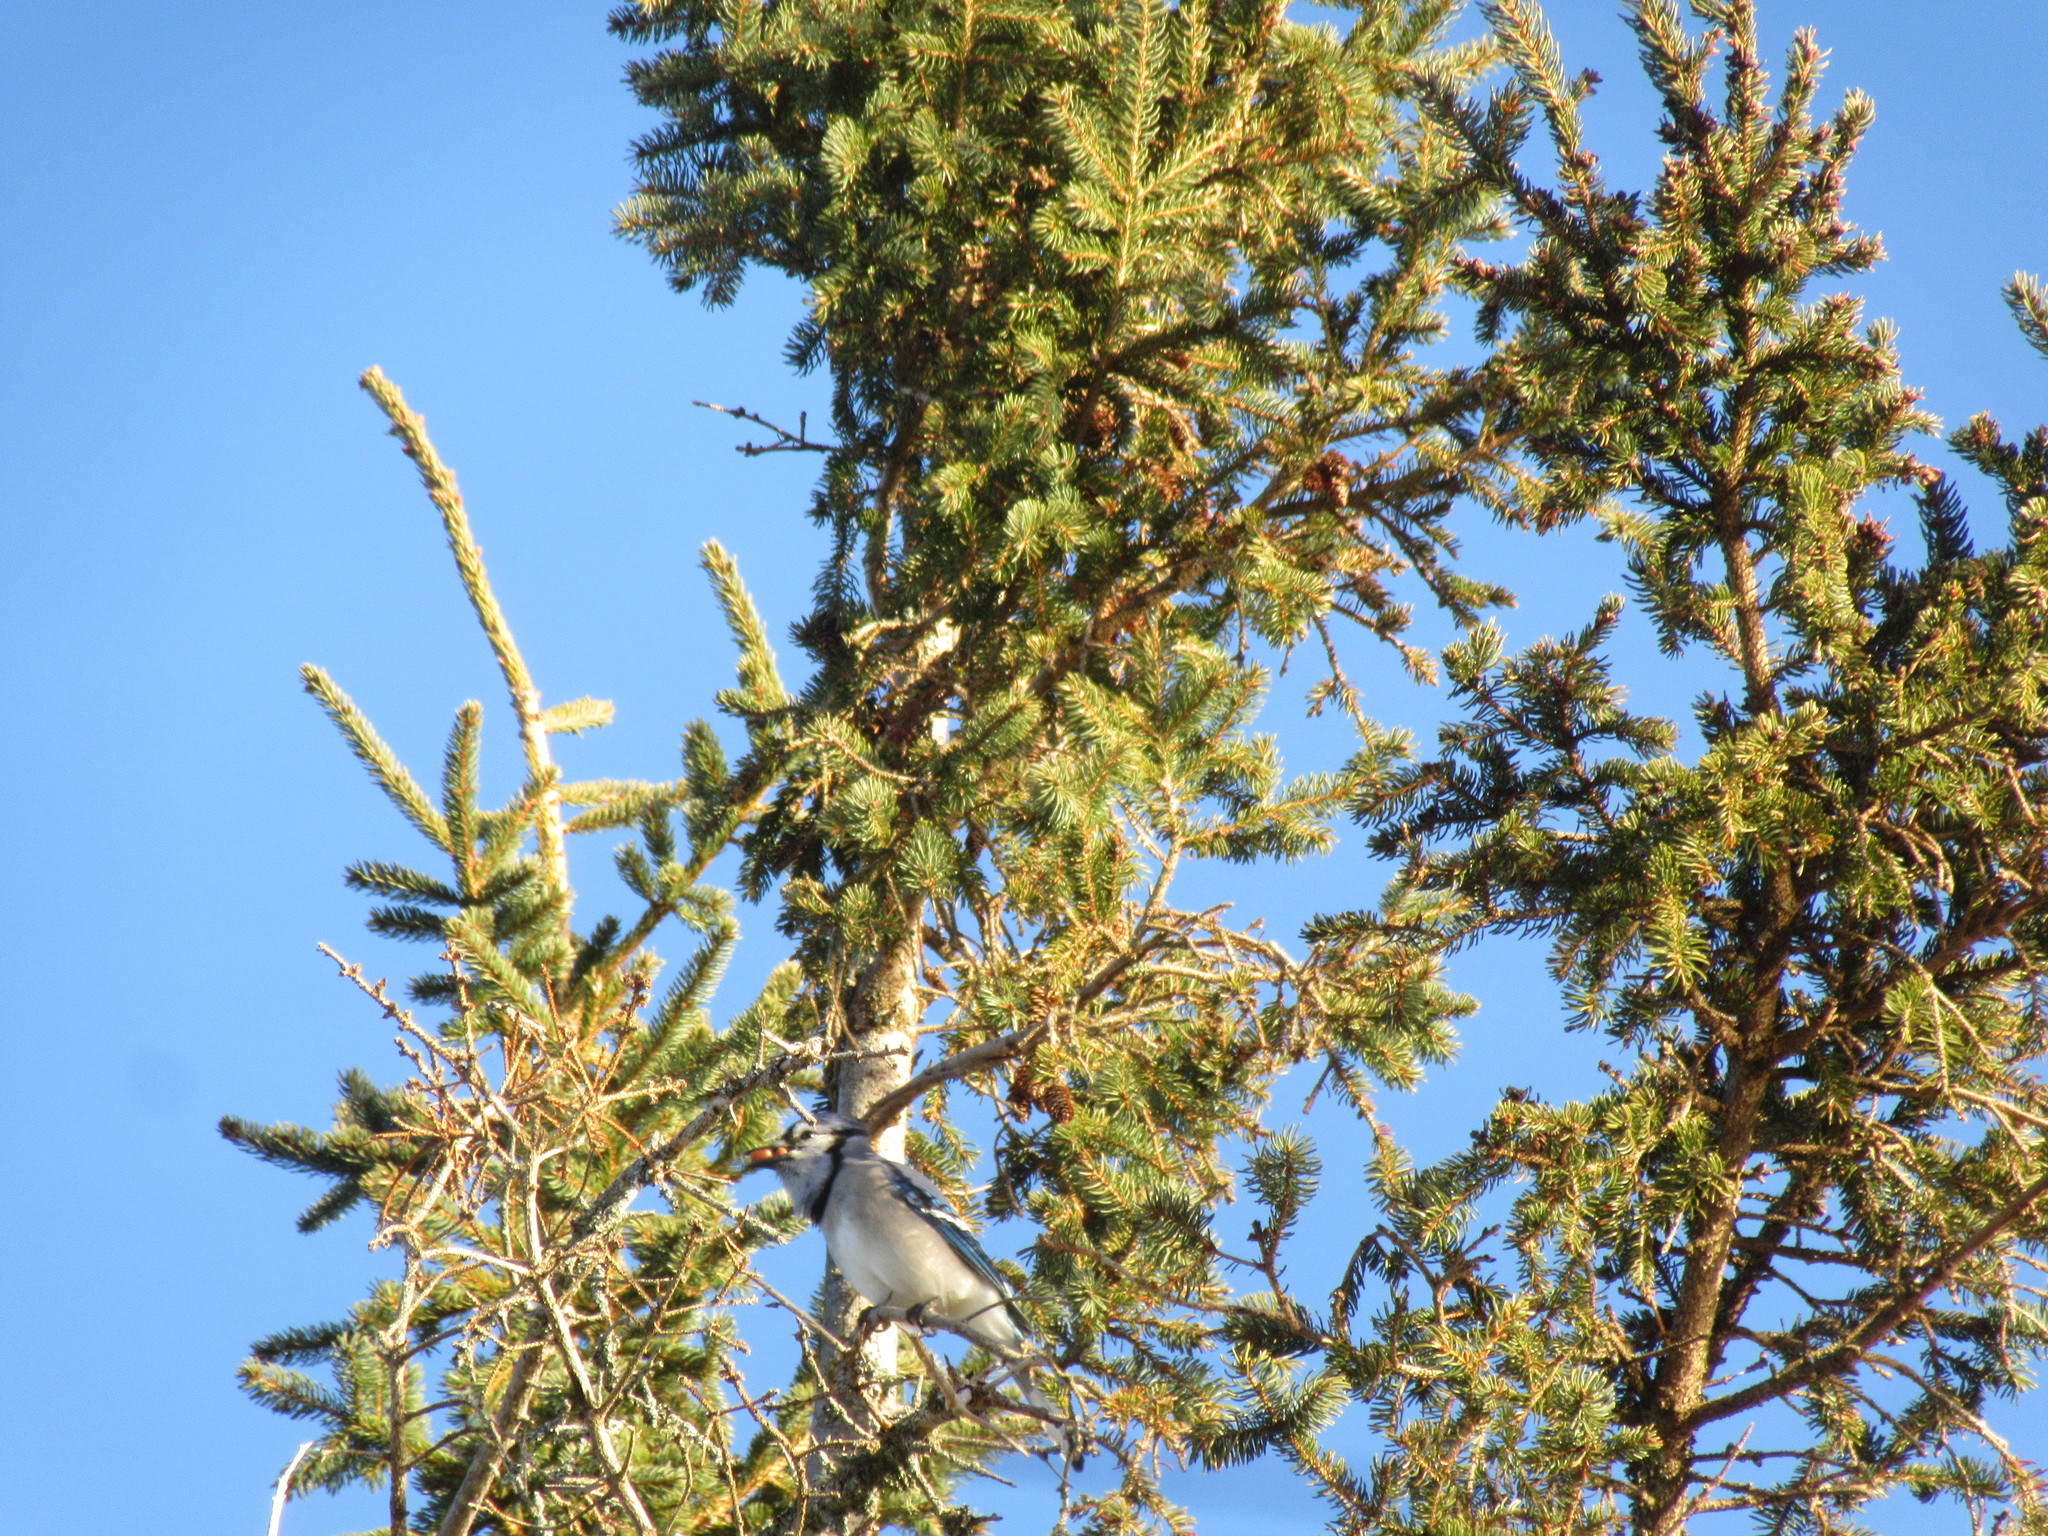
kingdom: Animalia
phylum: Chordata
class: Aves
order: Passeriformes
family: Corvidae
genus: Cyanocitta
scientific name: Cyanocitta cristata
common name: Blue jay
